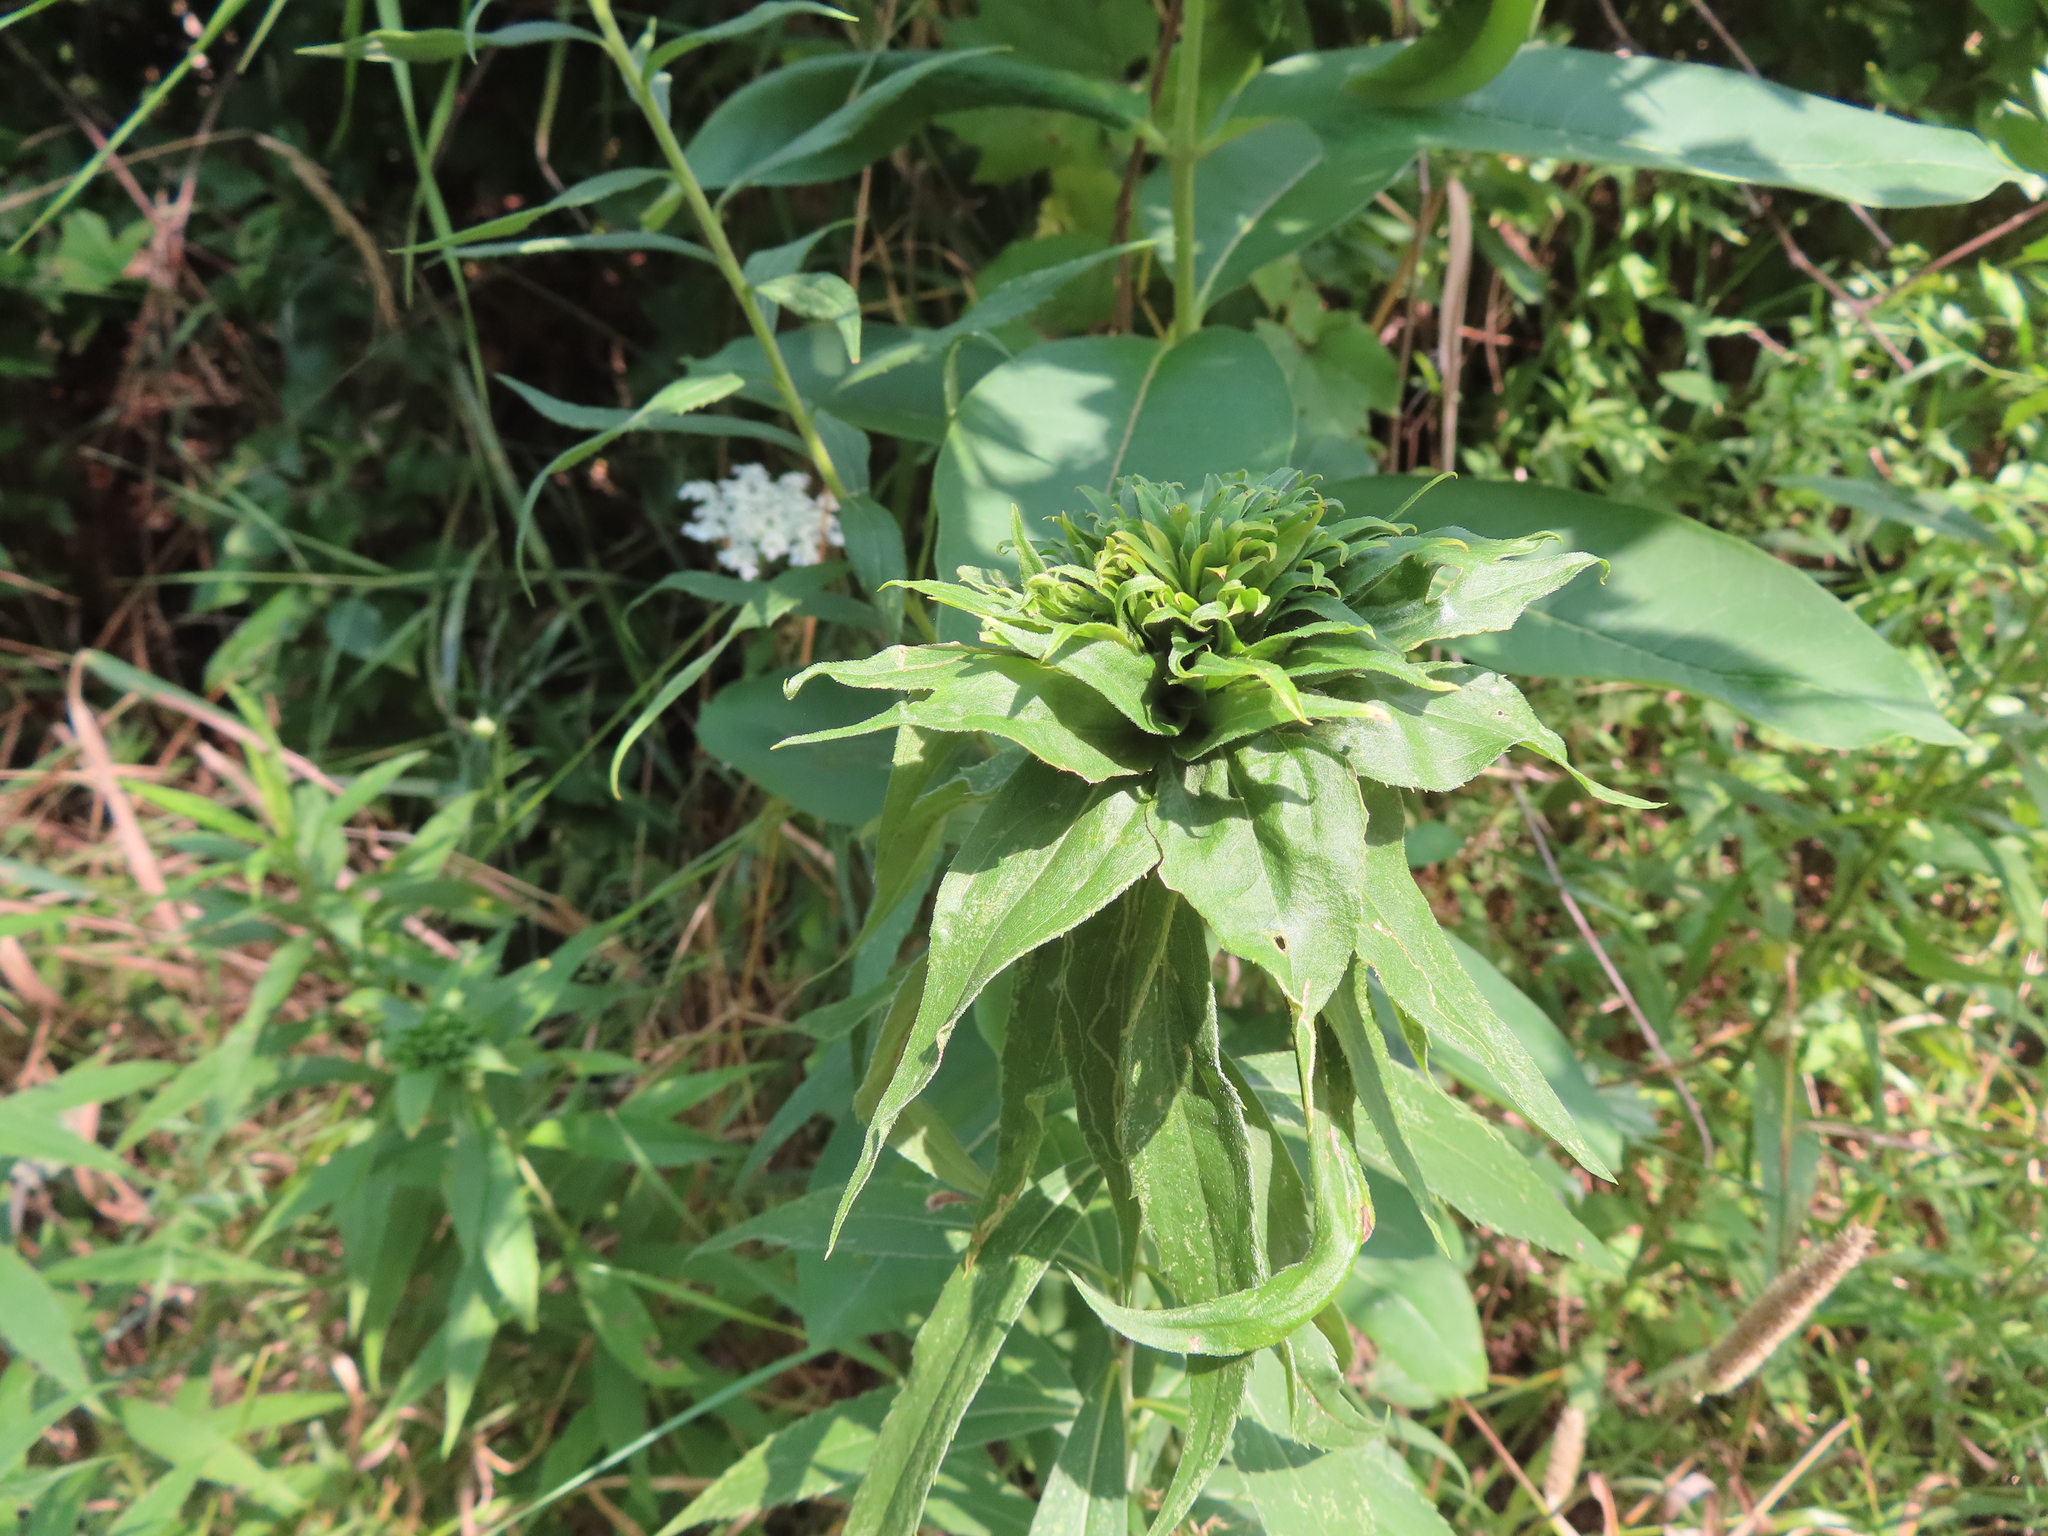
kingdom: Animalia
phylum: Arthropoda
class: Insecta
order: Diptera
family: Cecidomyiidae
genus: Rhopalomyia
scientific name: Rhopalomyia capitata
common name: Giant goldenrod bunch gall midge
